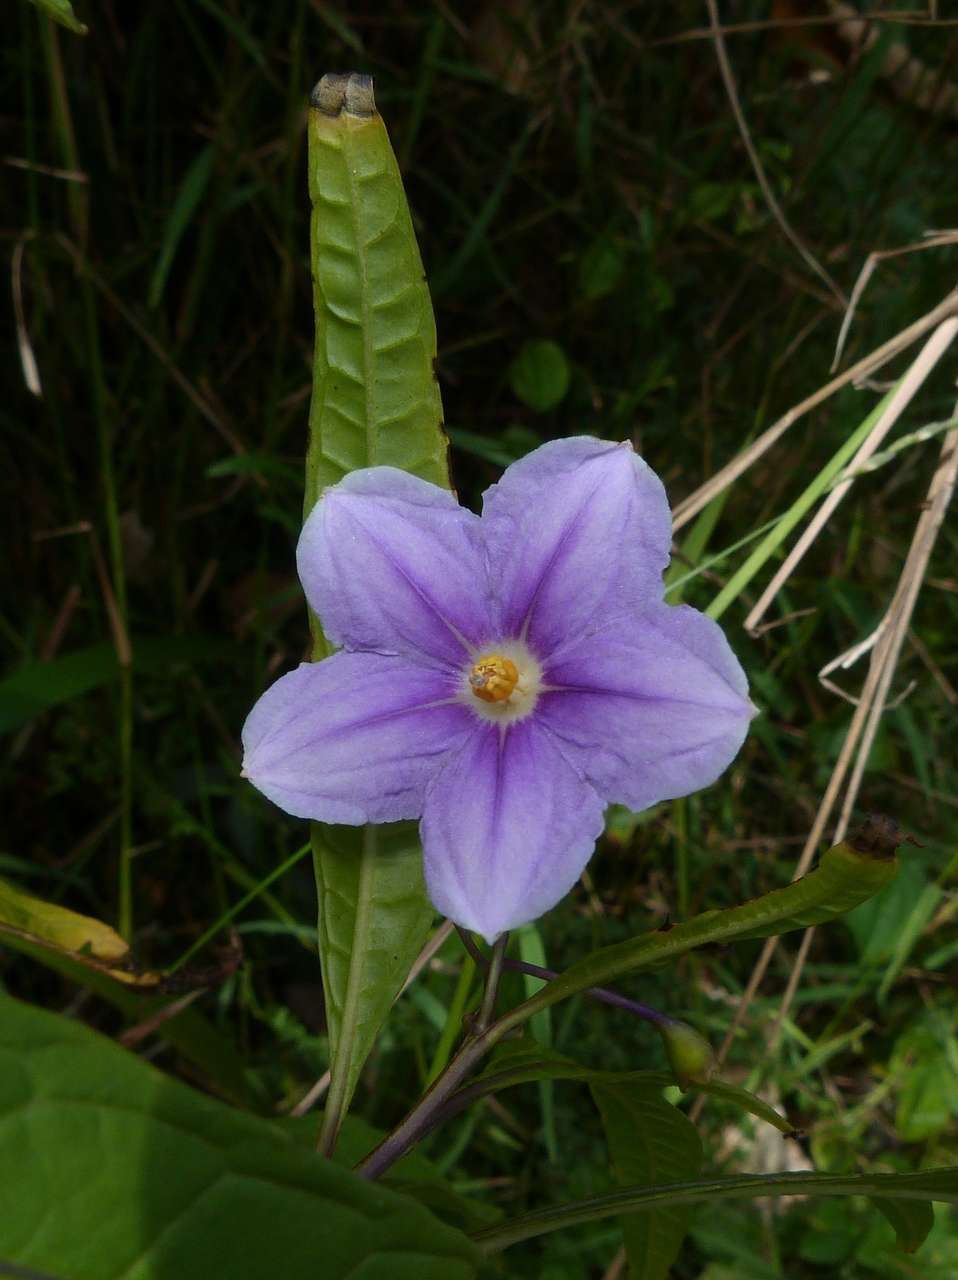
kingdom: Plantae
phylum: Tracheophyta
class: Magnoliopsida
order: Solanales
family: Solanaceae
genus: Solanum
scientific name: Solanum aviculare
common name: New zealand nightshade
